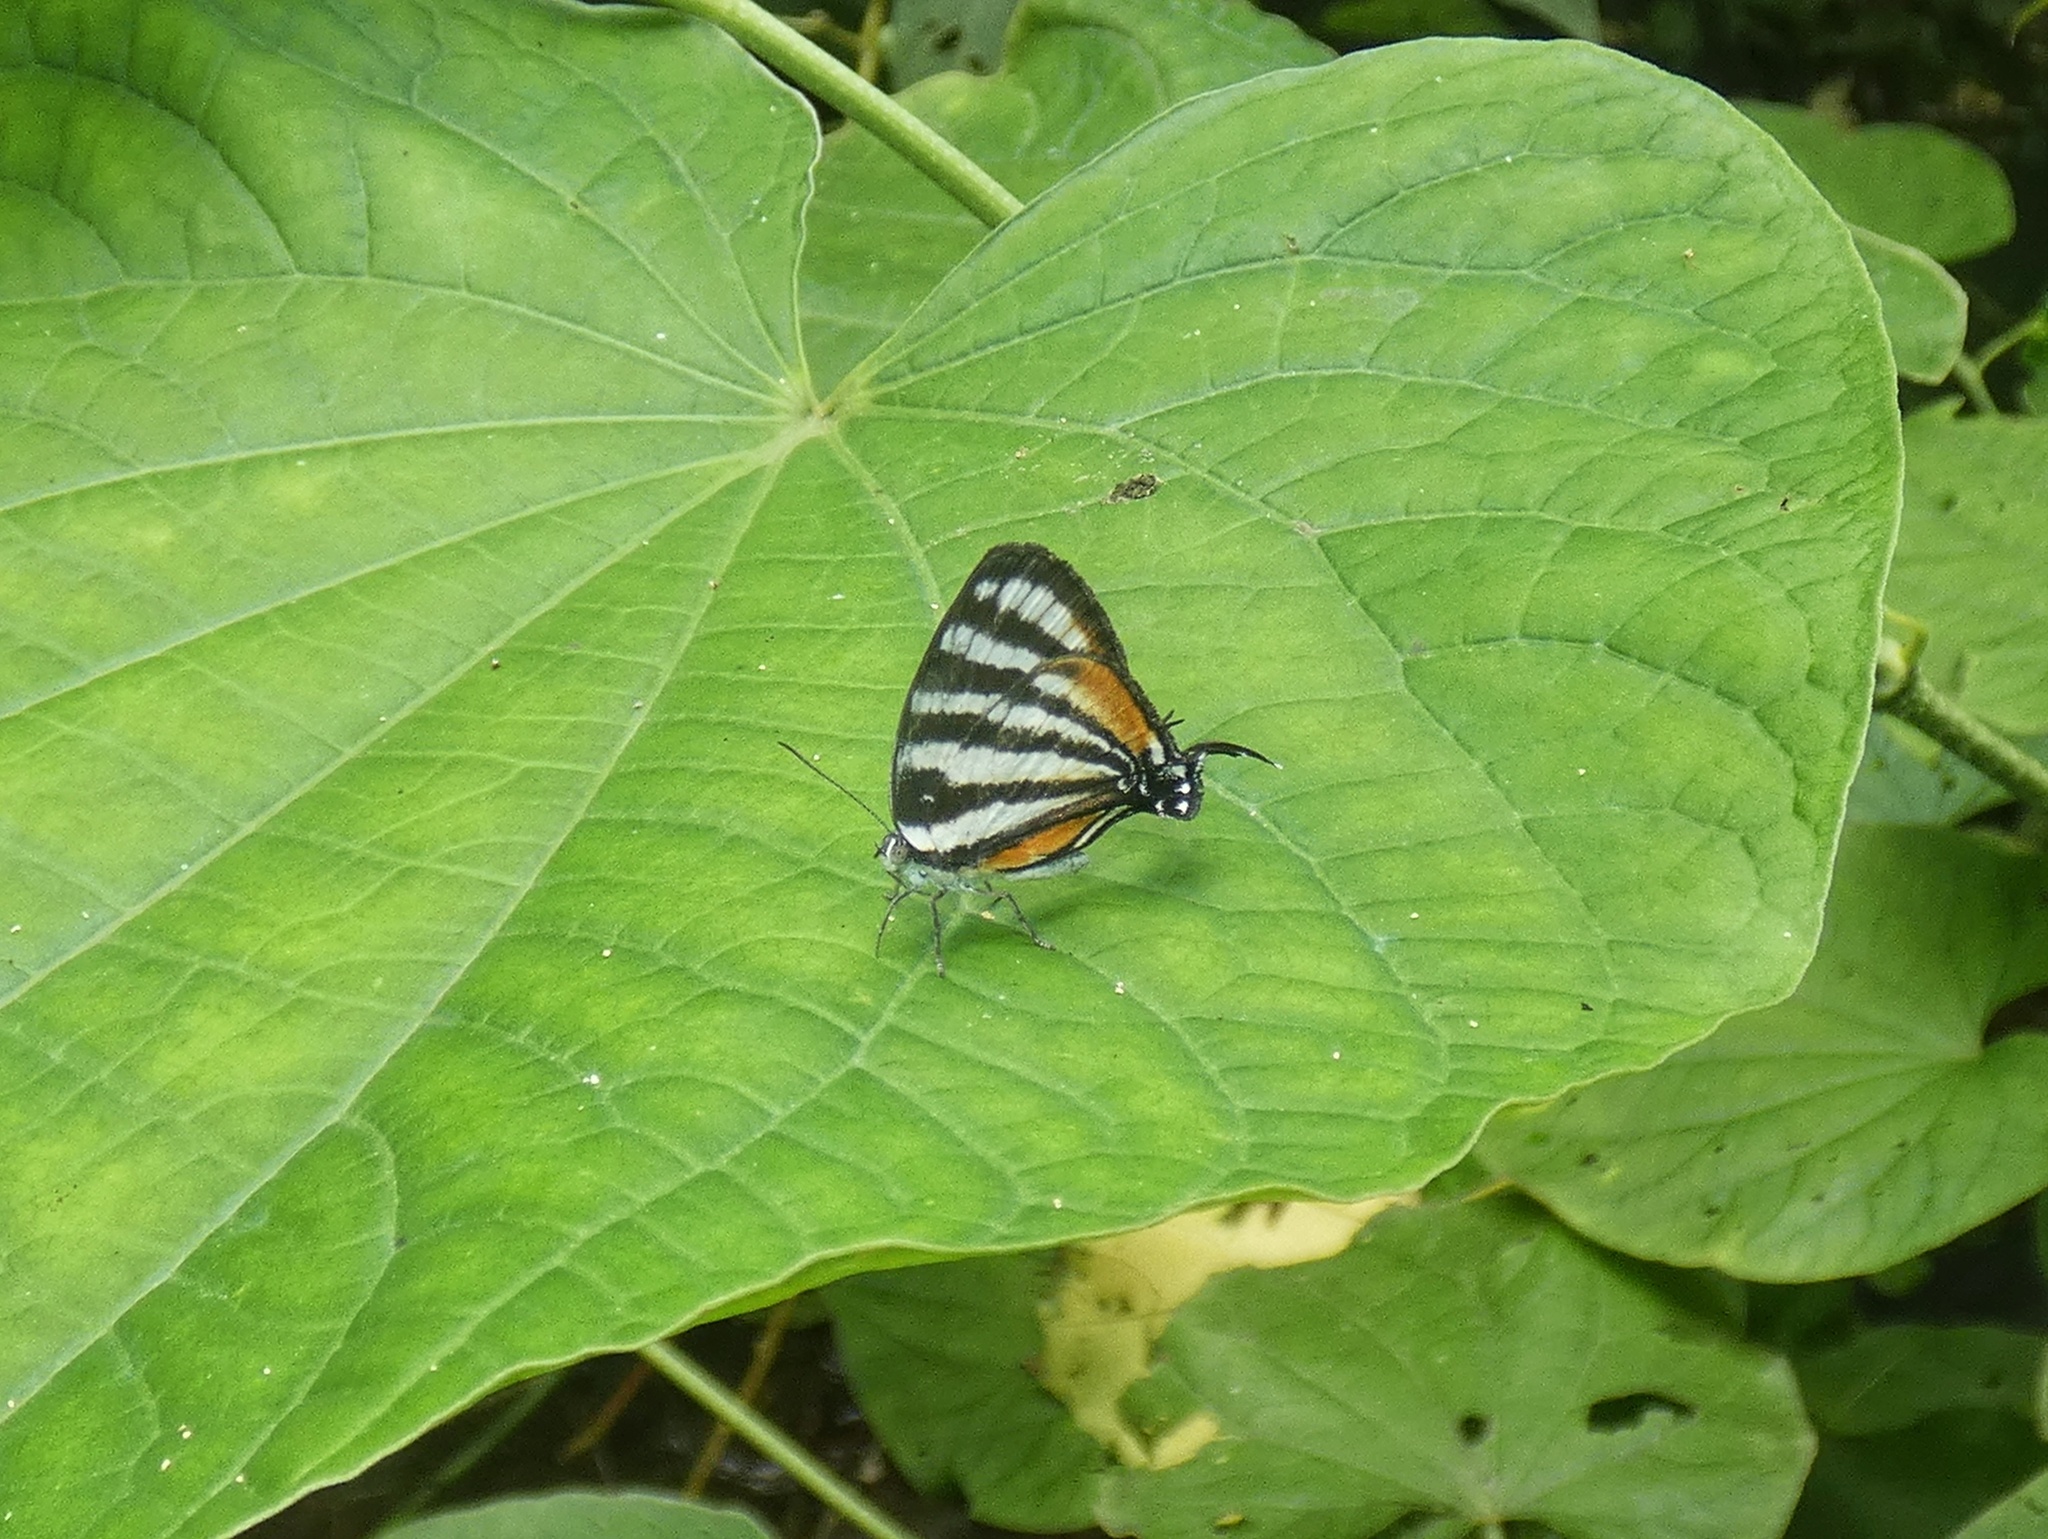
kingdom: Animalia
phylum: Arthropoda
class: Insecta
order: Lepidoptera
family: Lycaenidae
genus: Arawacus
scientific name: Arawacus lincoides
